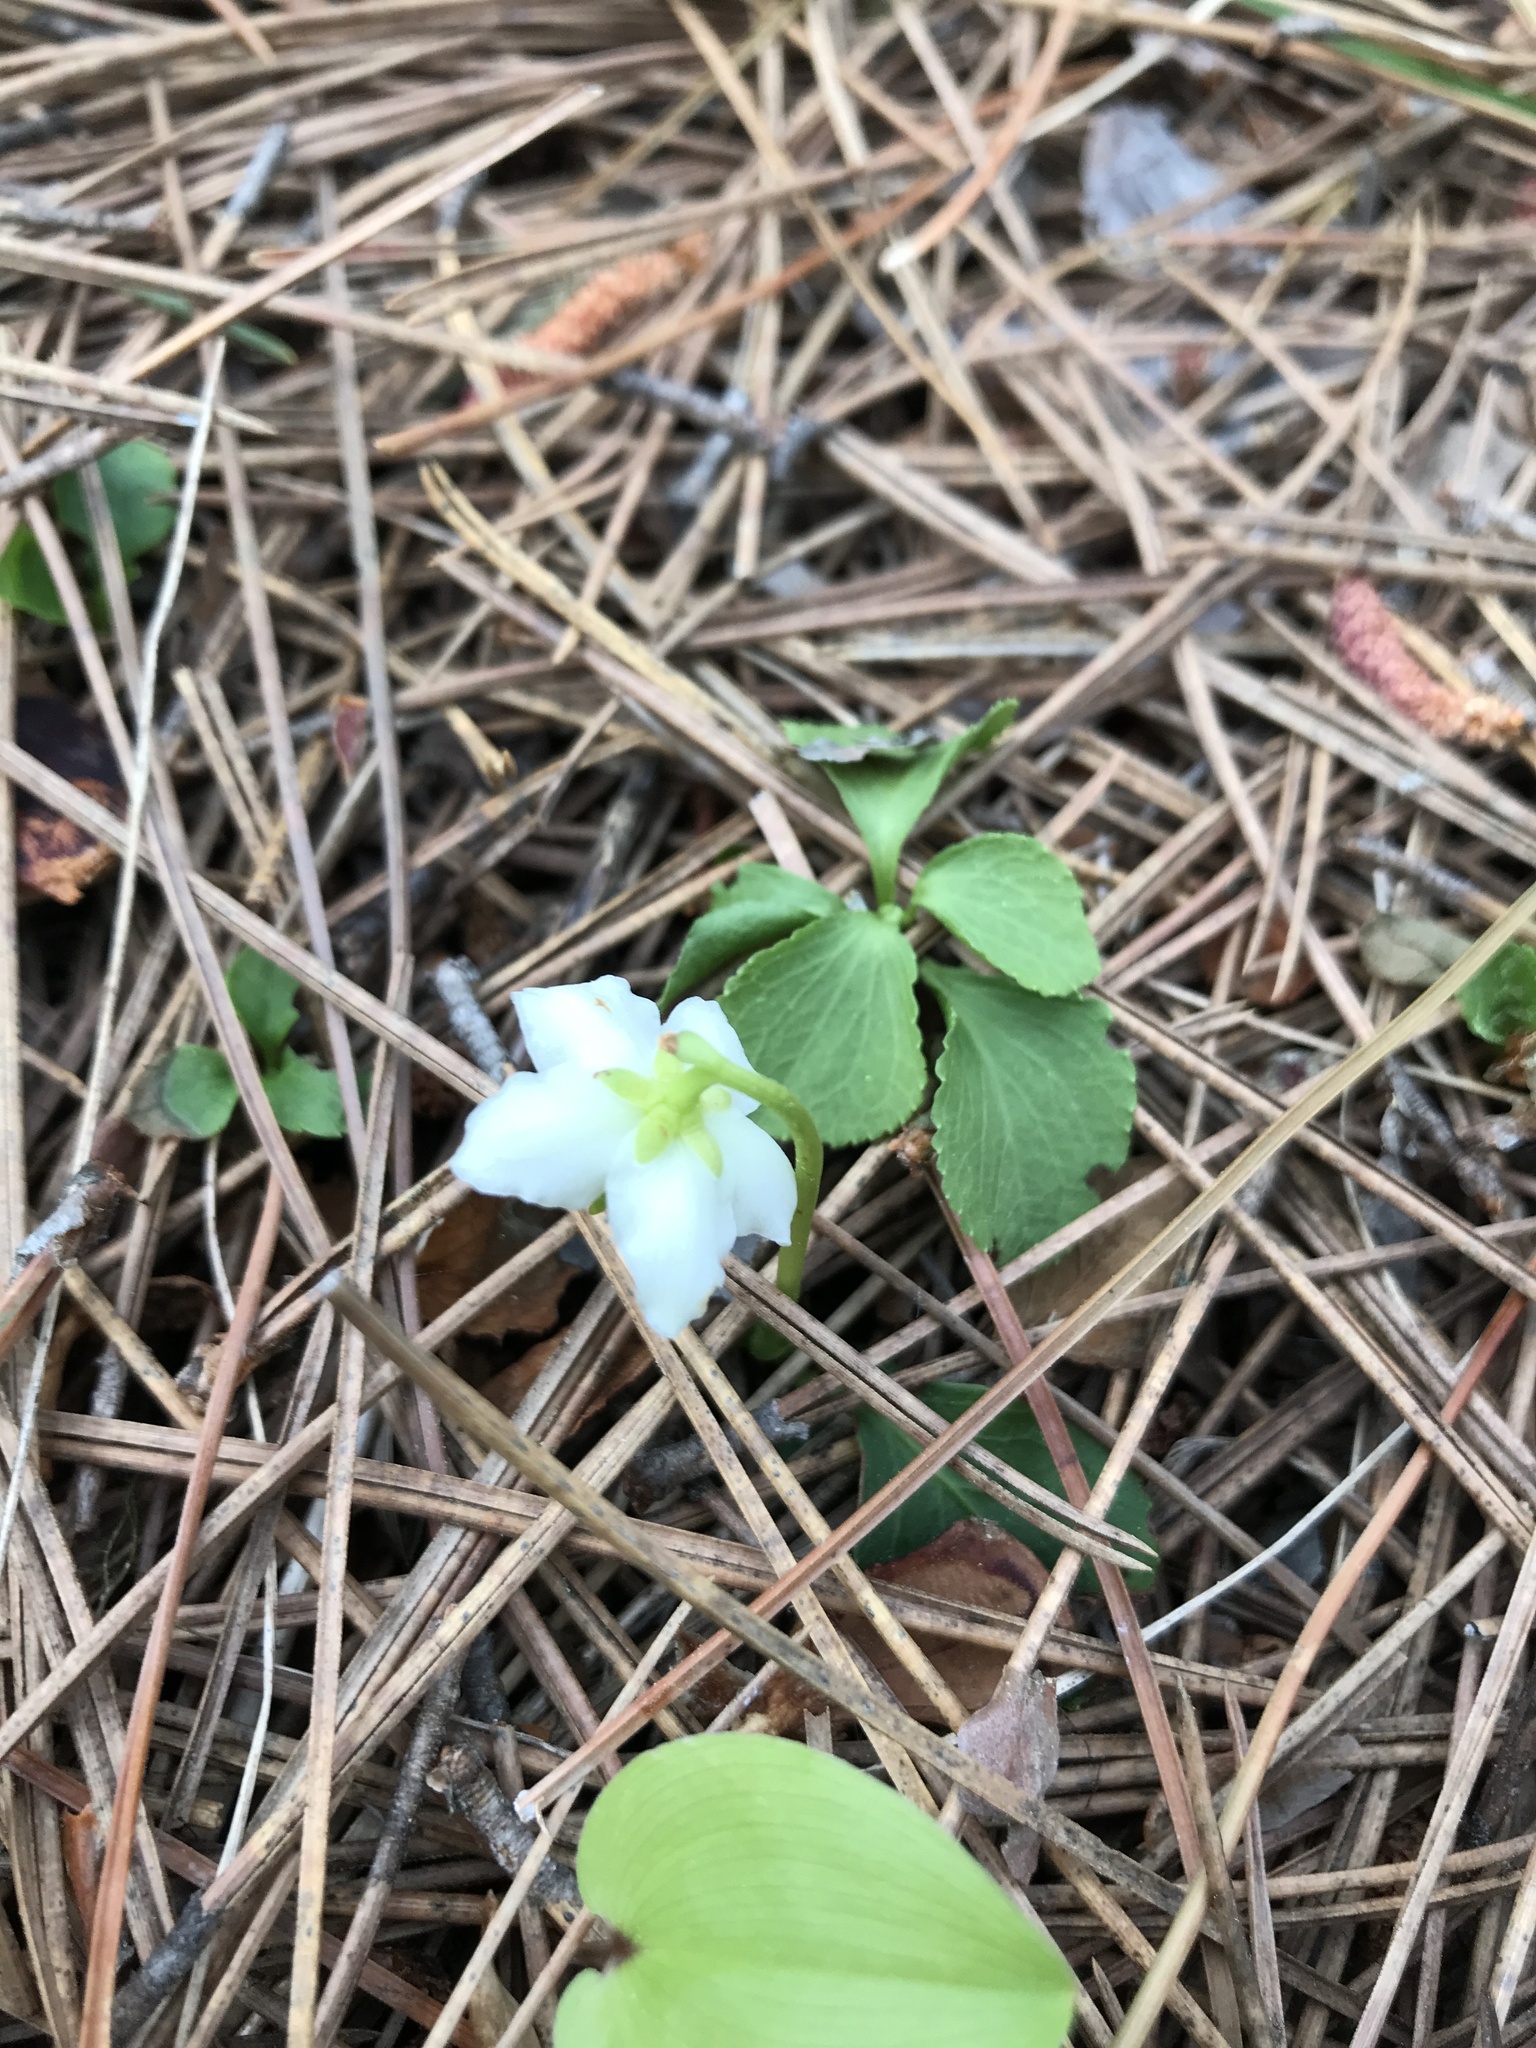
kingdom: Plantae
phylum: Tracheophyta
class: Magnoliopsida
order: Ericales
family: Ericaceae
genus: Moneses
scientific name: Moneses uniflora
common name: One-flowered wintergreen
